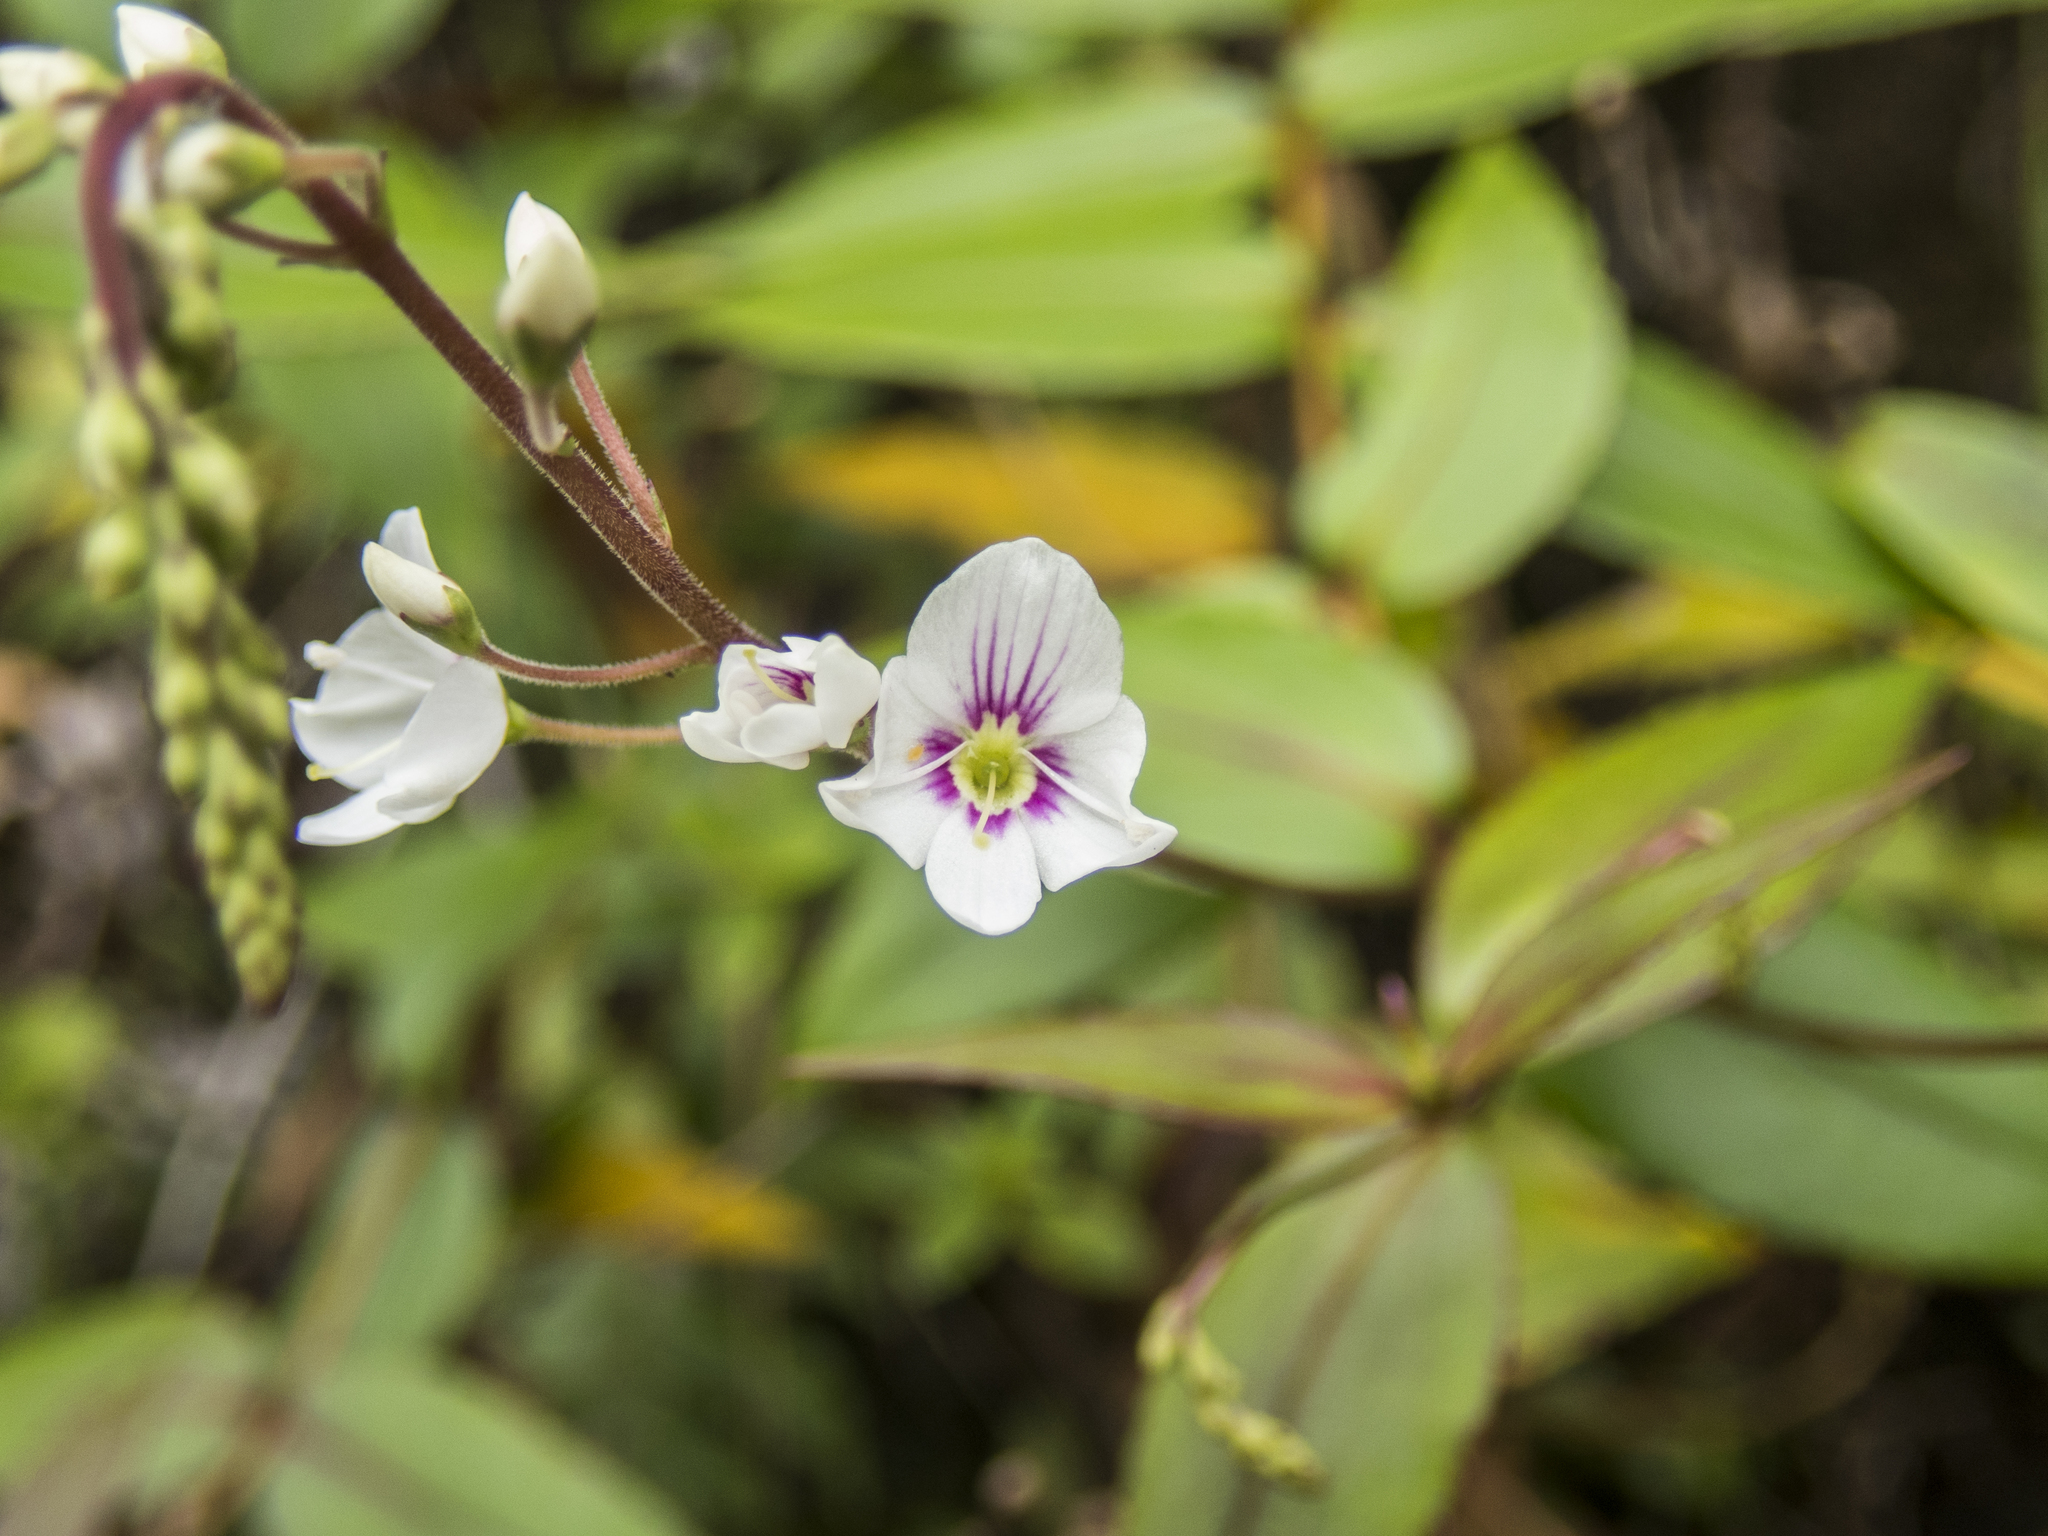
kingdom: Plantae
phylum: Tracheophyta
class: Magnoliopsida
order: Lamiales
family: Plantaginaceae
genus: Veronica
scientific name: Veronica lanceolata
